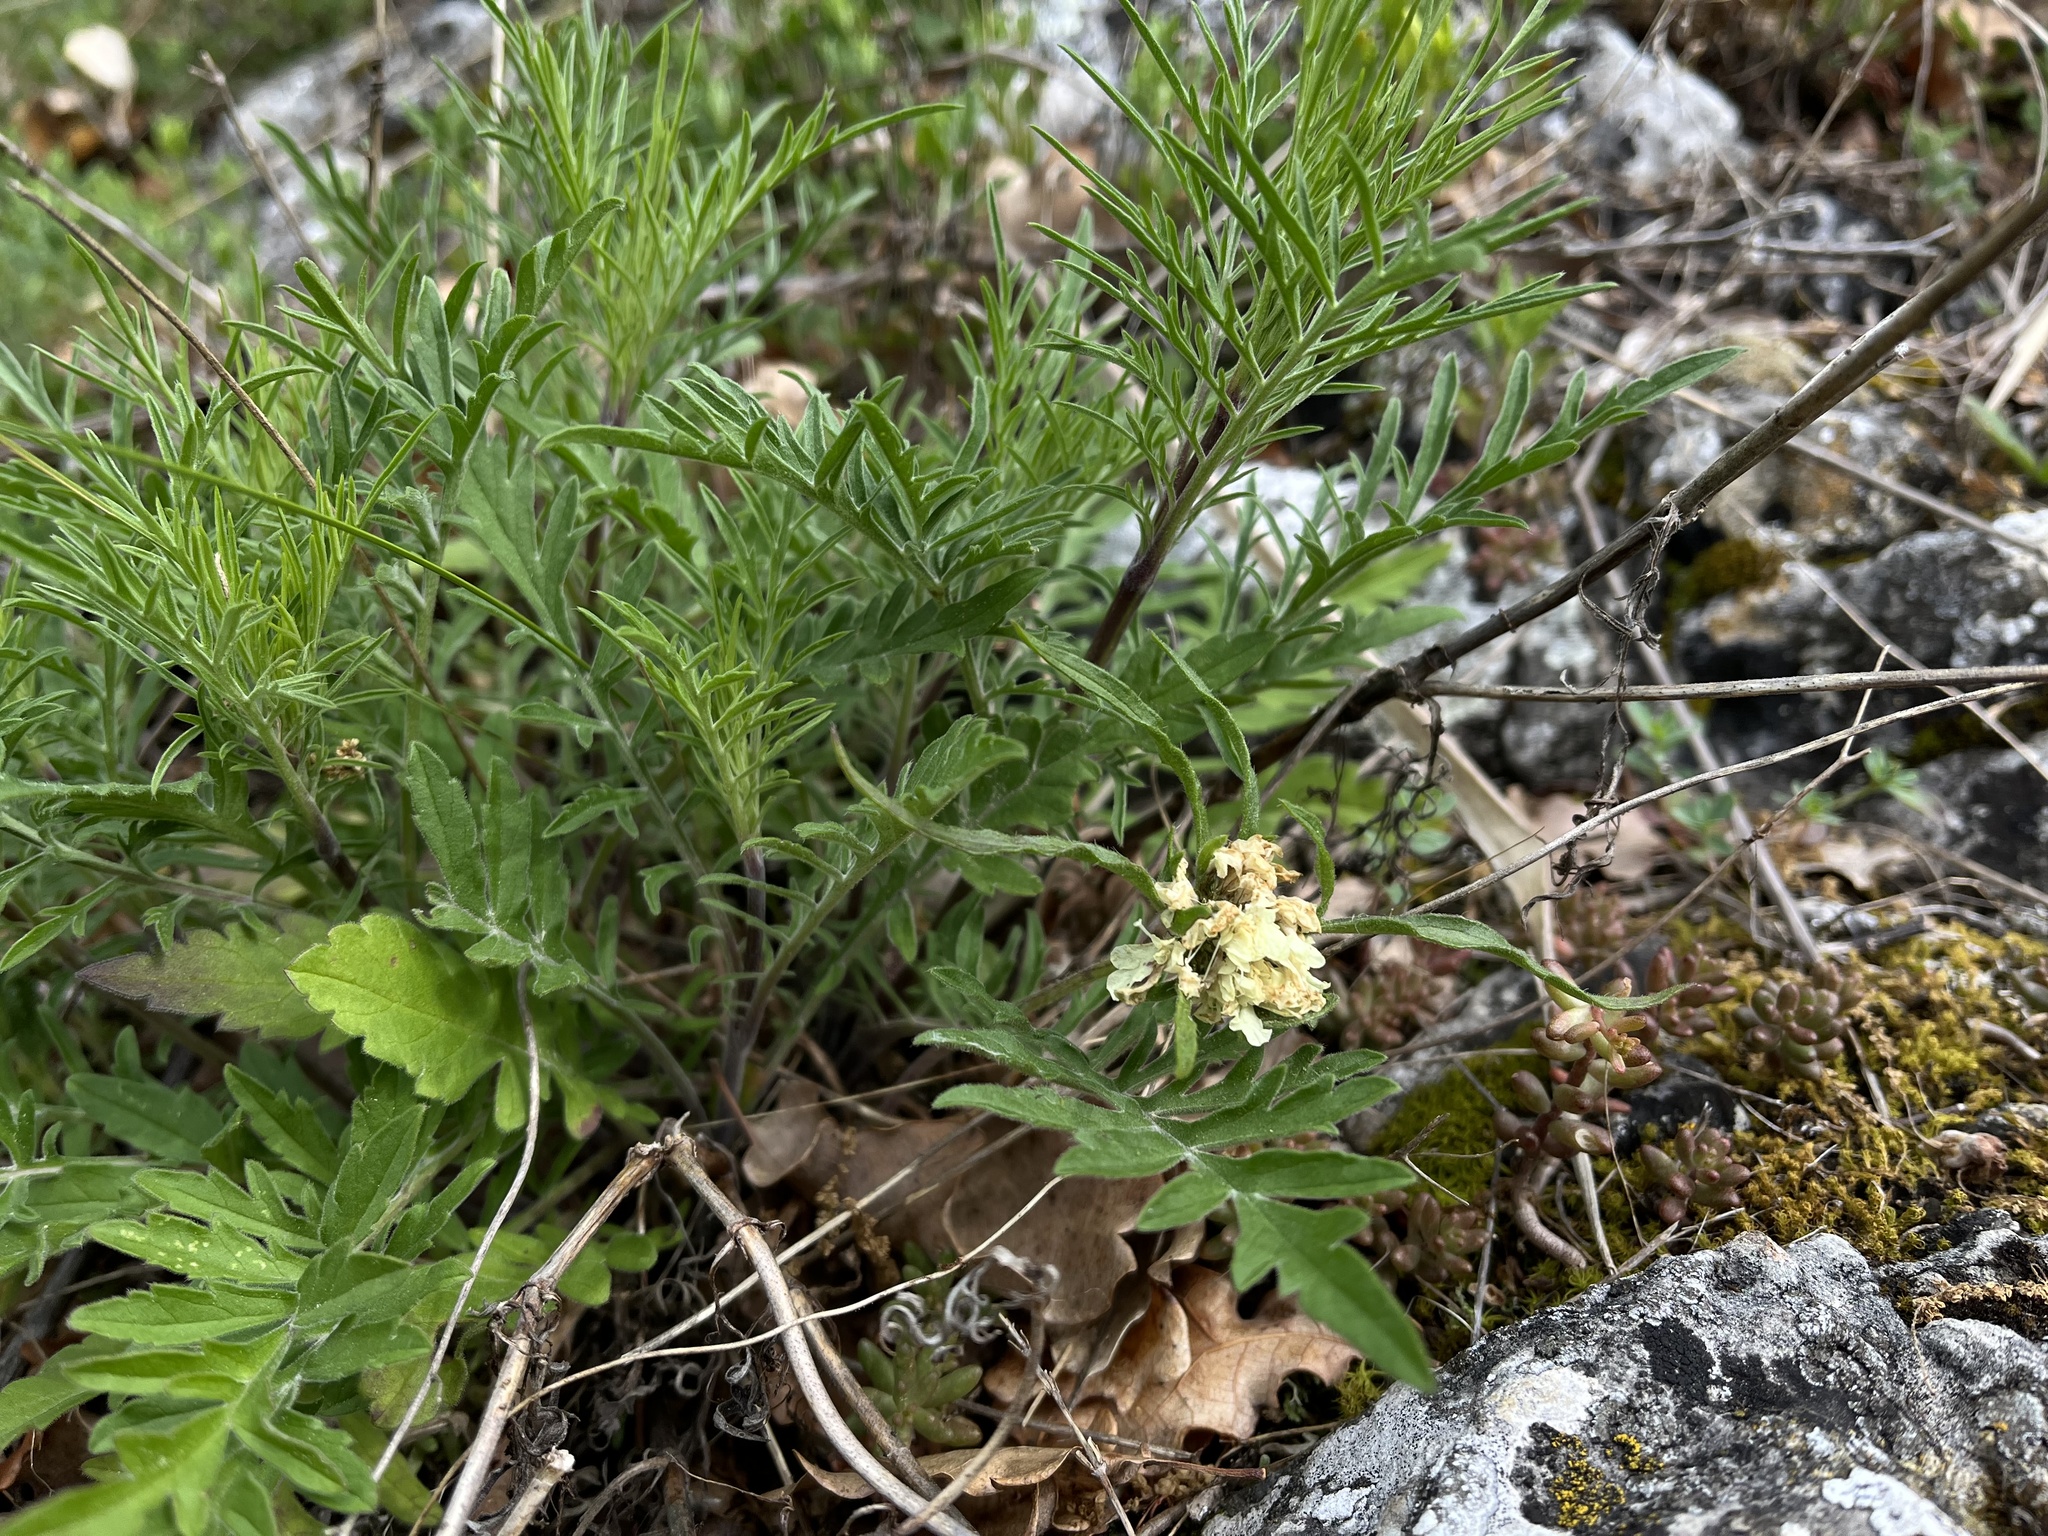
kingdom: Plantae
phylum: Tracheophyta
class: Magnoliopsida
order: Dipsacales
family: Caprifoliaceae
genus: Scabiosa
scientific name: Scabiosa ochroleuca
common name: Cream pincushions
